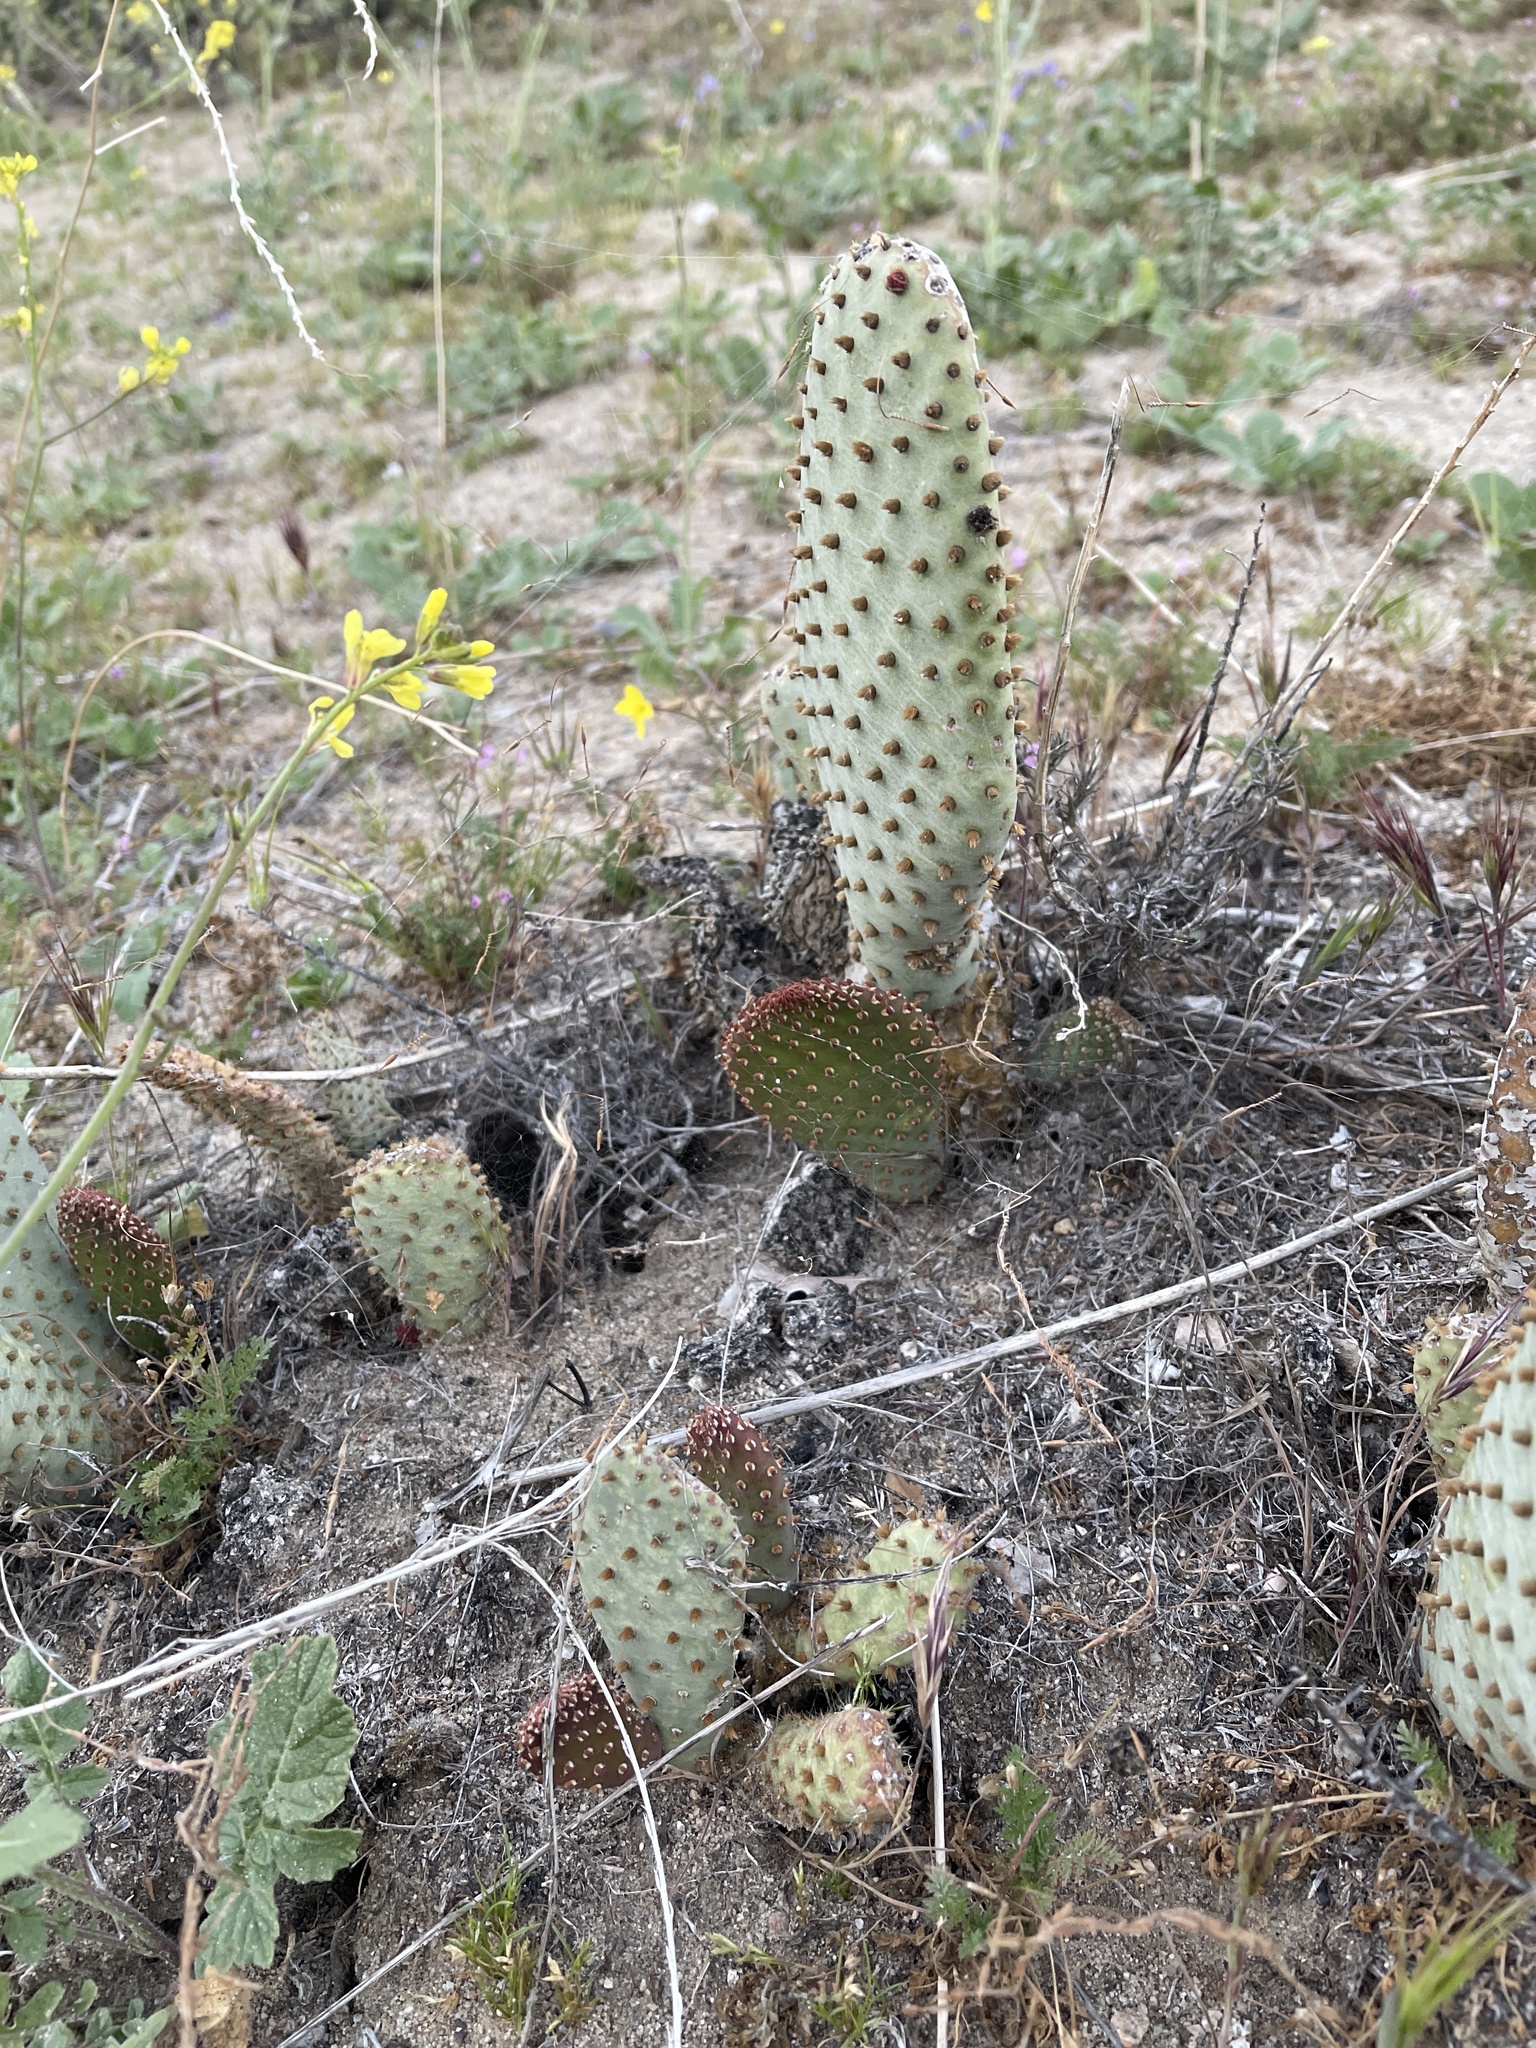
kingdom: Plantae
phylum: Tracheophyta
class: Magnoliopsida
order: Caryophyllales
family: Cactaceae
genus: Opuntia
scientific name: Opuntia basilaris
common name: Beavertail prickly-pear
